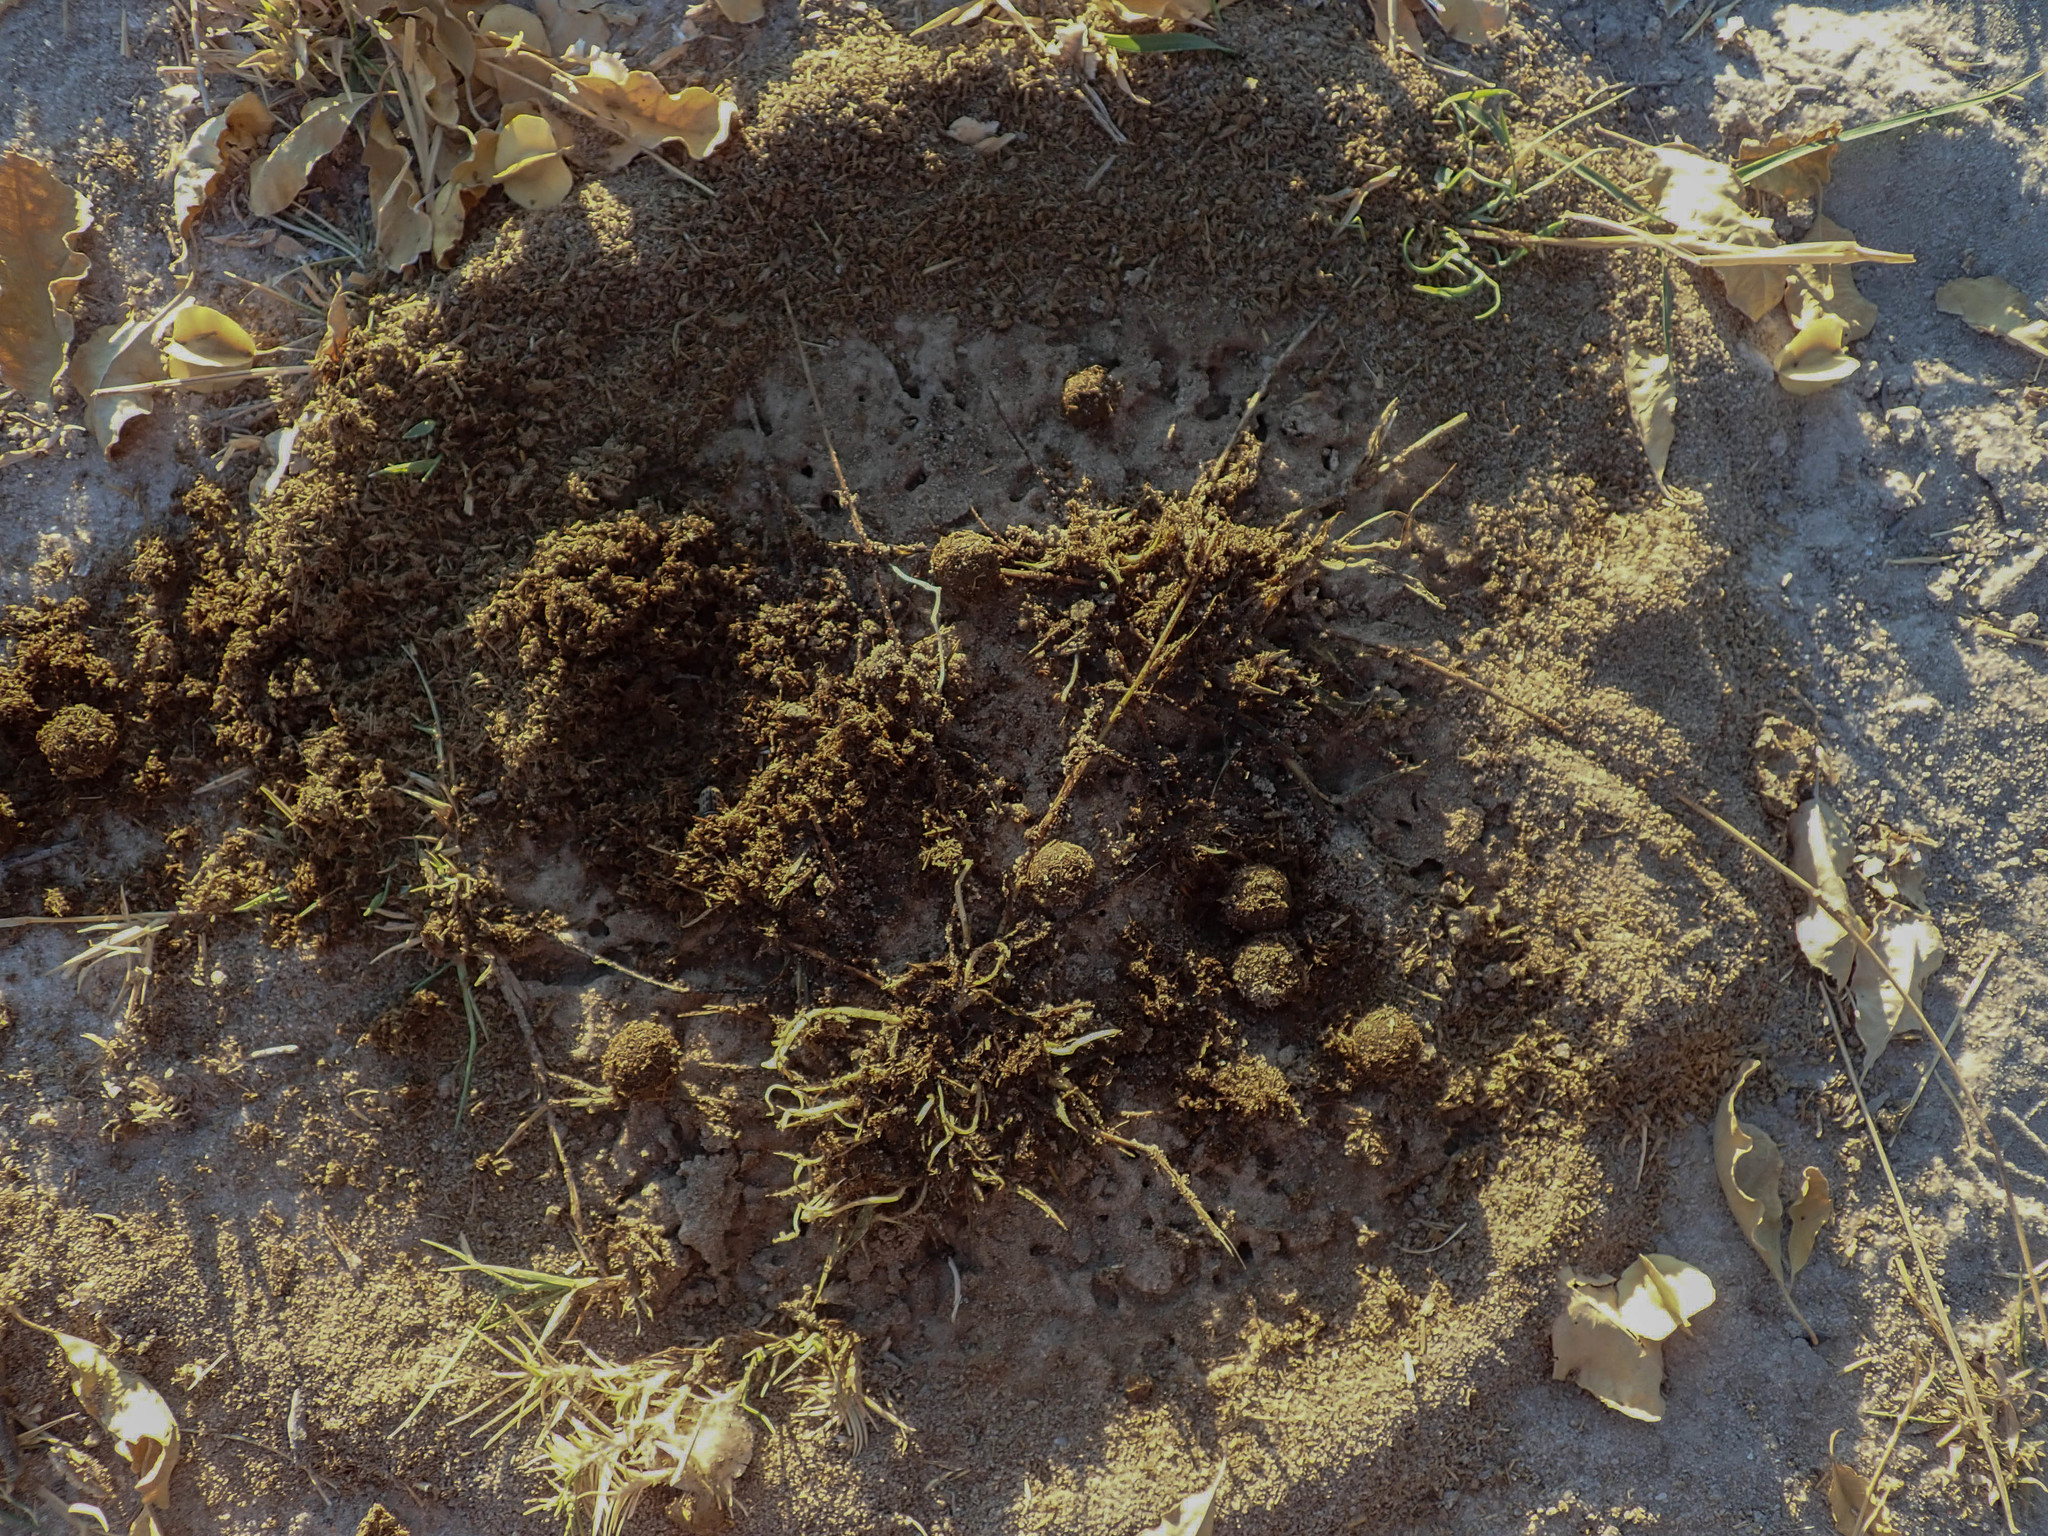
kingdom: Animalia
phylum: Arthropoda
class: Insecta
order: Coleoptera
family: Scarabaeidae
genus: Oniticellus
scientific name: Oniticellus pictus
